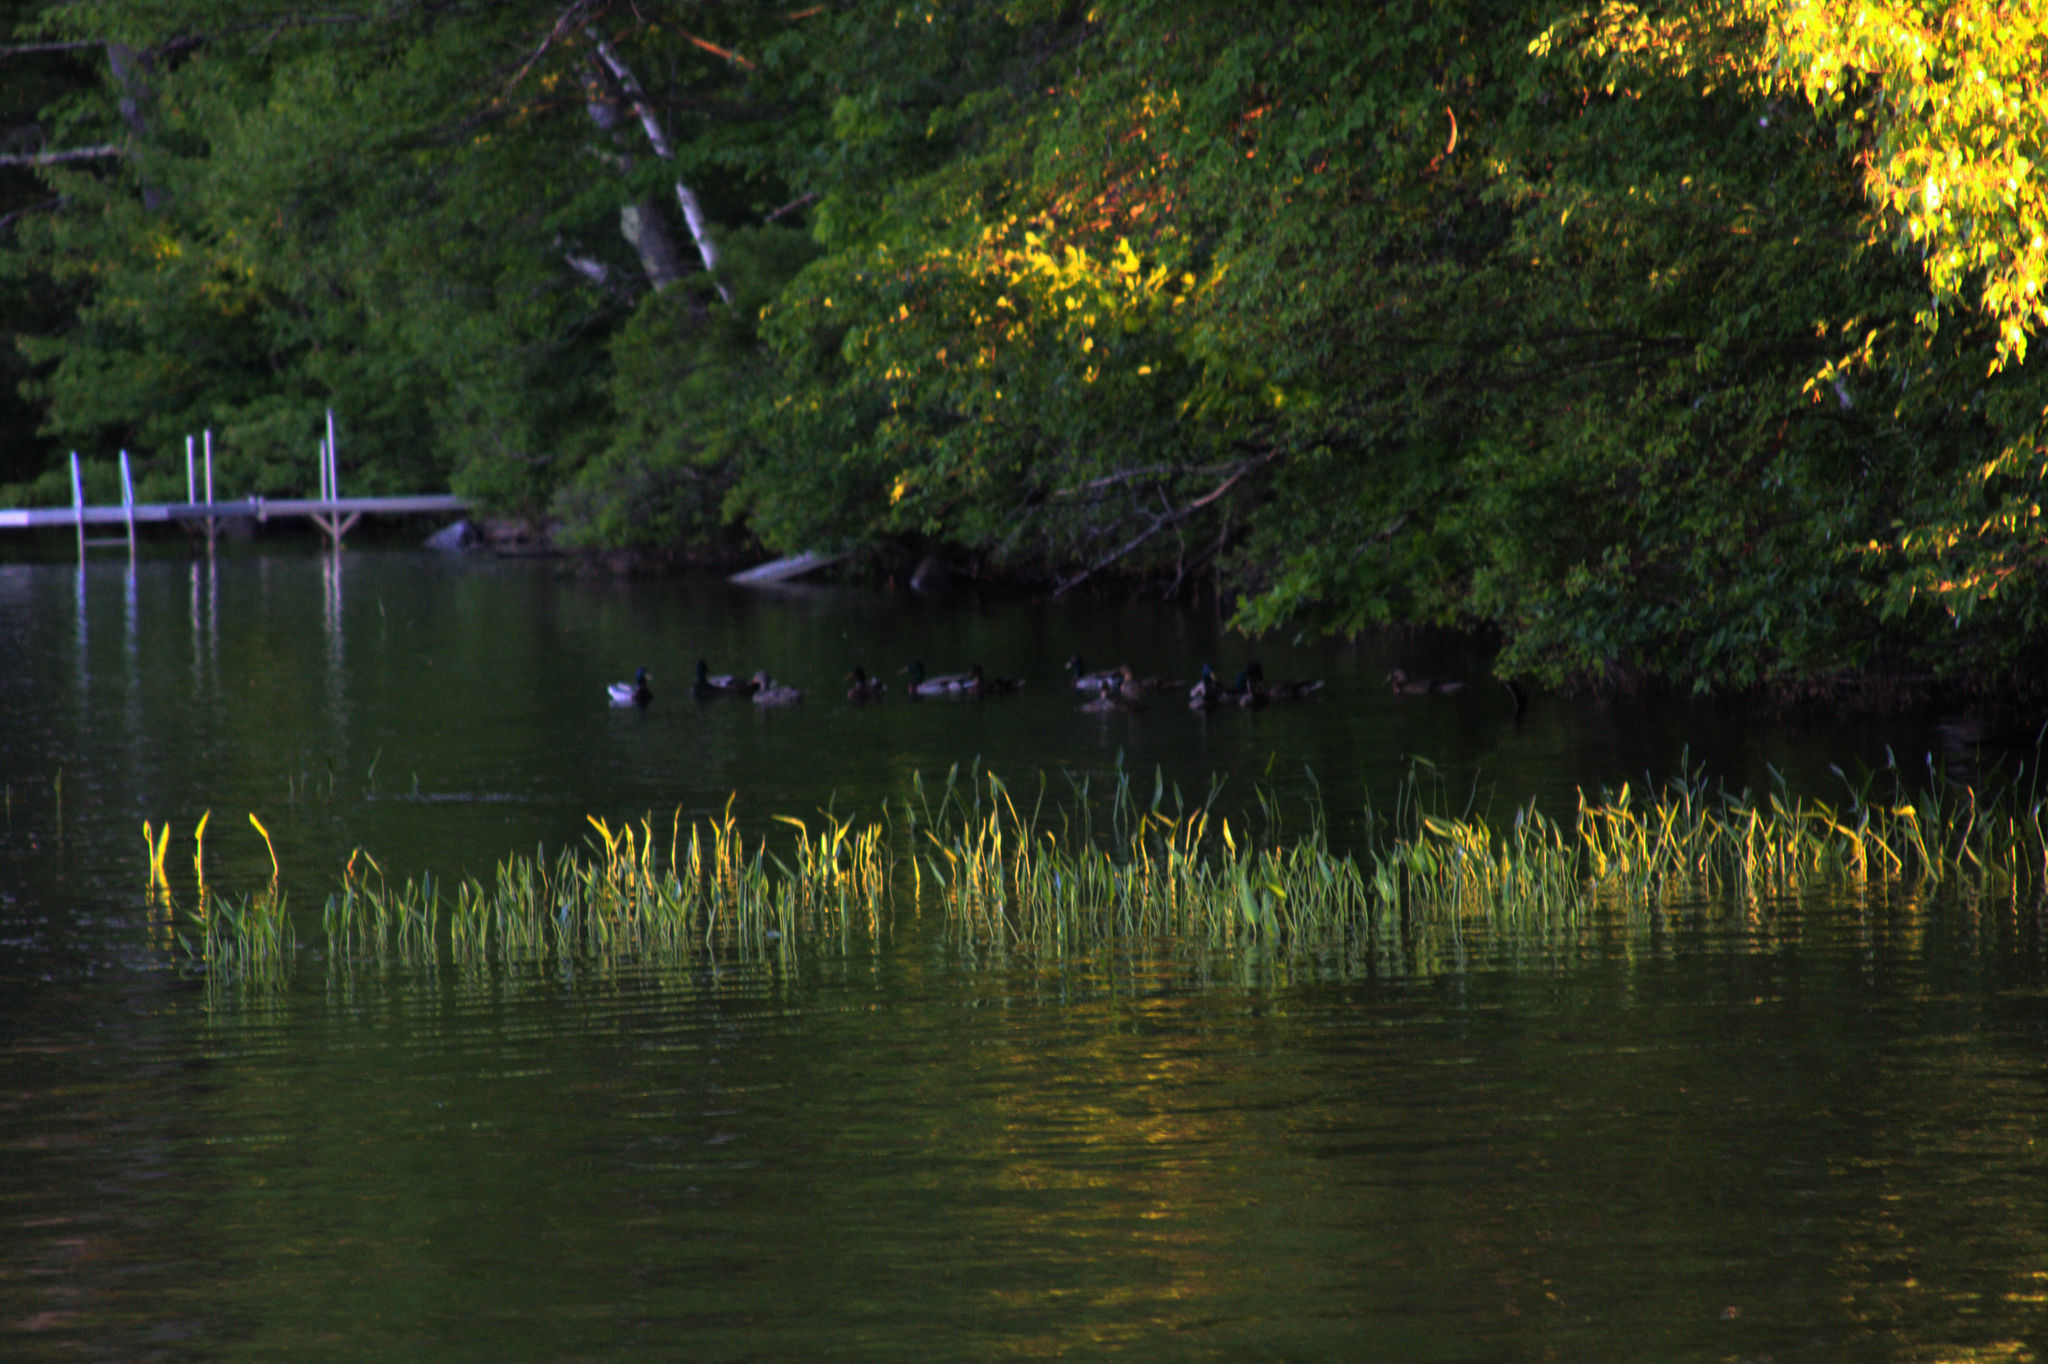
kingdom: Animalia
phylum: Chordata
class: Aves
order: Anseriformes
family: Anatidae
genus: Anas
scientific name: Anas platyrhynchos
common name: Mallard
